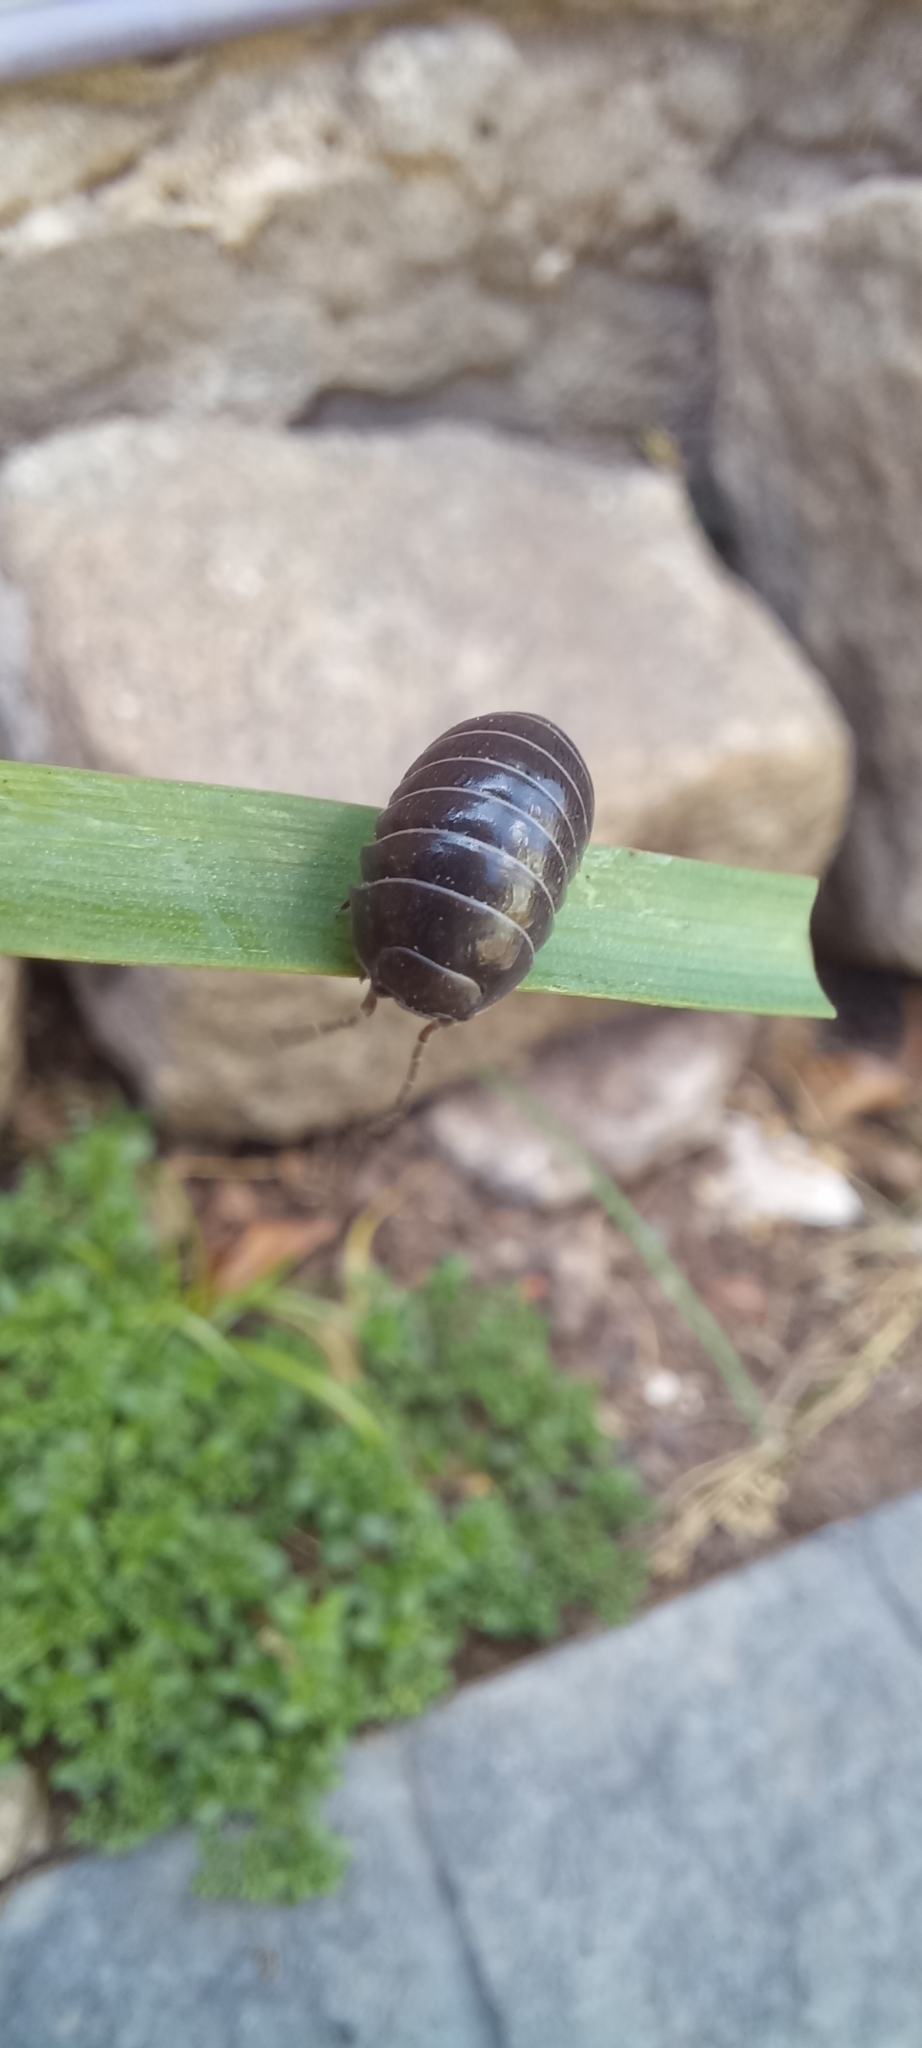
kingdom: Animalia
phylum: Arthropoda
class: Malacostraca
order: Isopoda
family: Armadillidiidae
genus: Armadillidium
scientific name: Armadillidium vulgare
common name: Common pill woodlouse
